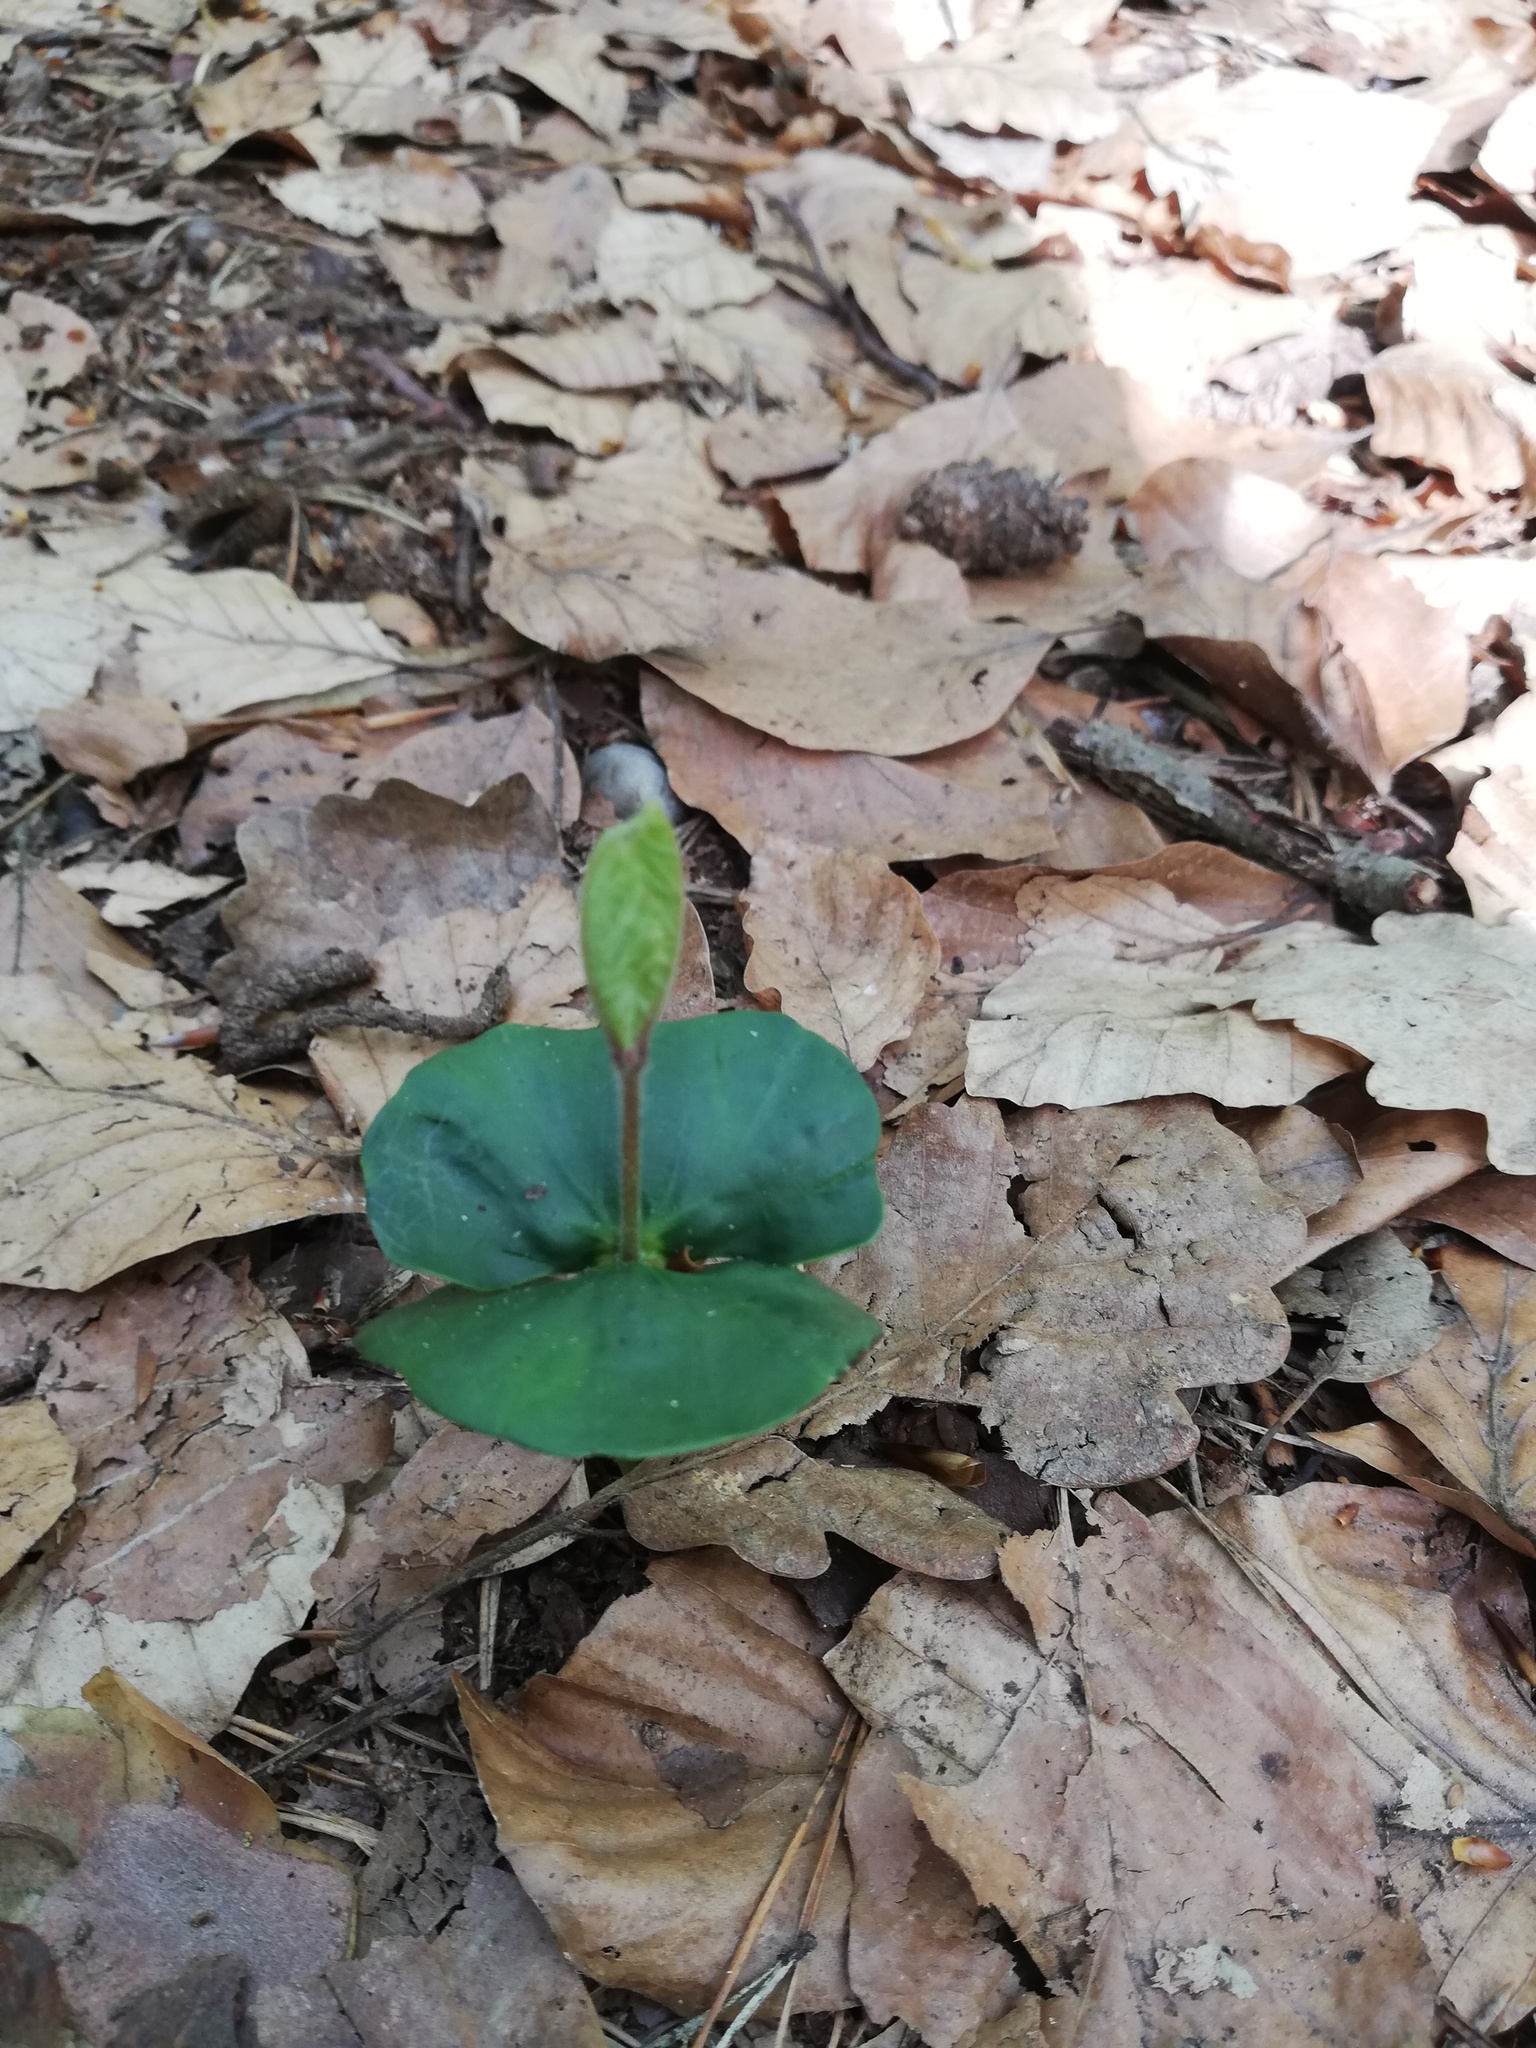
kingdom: Plantae
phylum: Tracheophyta
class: Magnoliopsida
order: Fagales
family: Fagaceae
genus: Fagus
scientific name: Fagus sylvatica
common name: Beech
